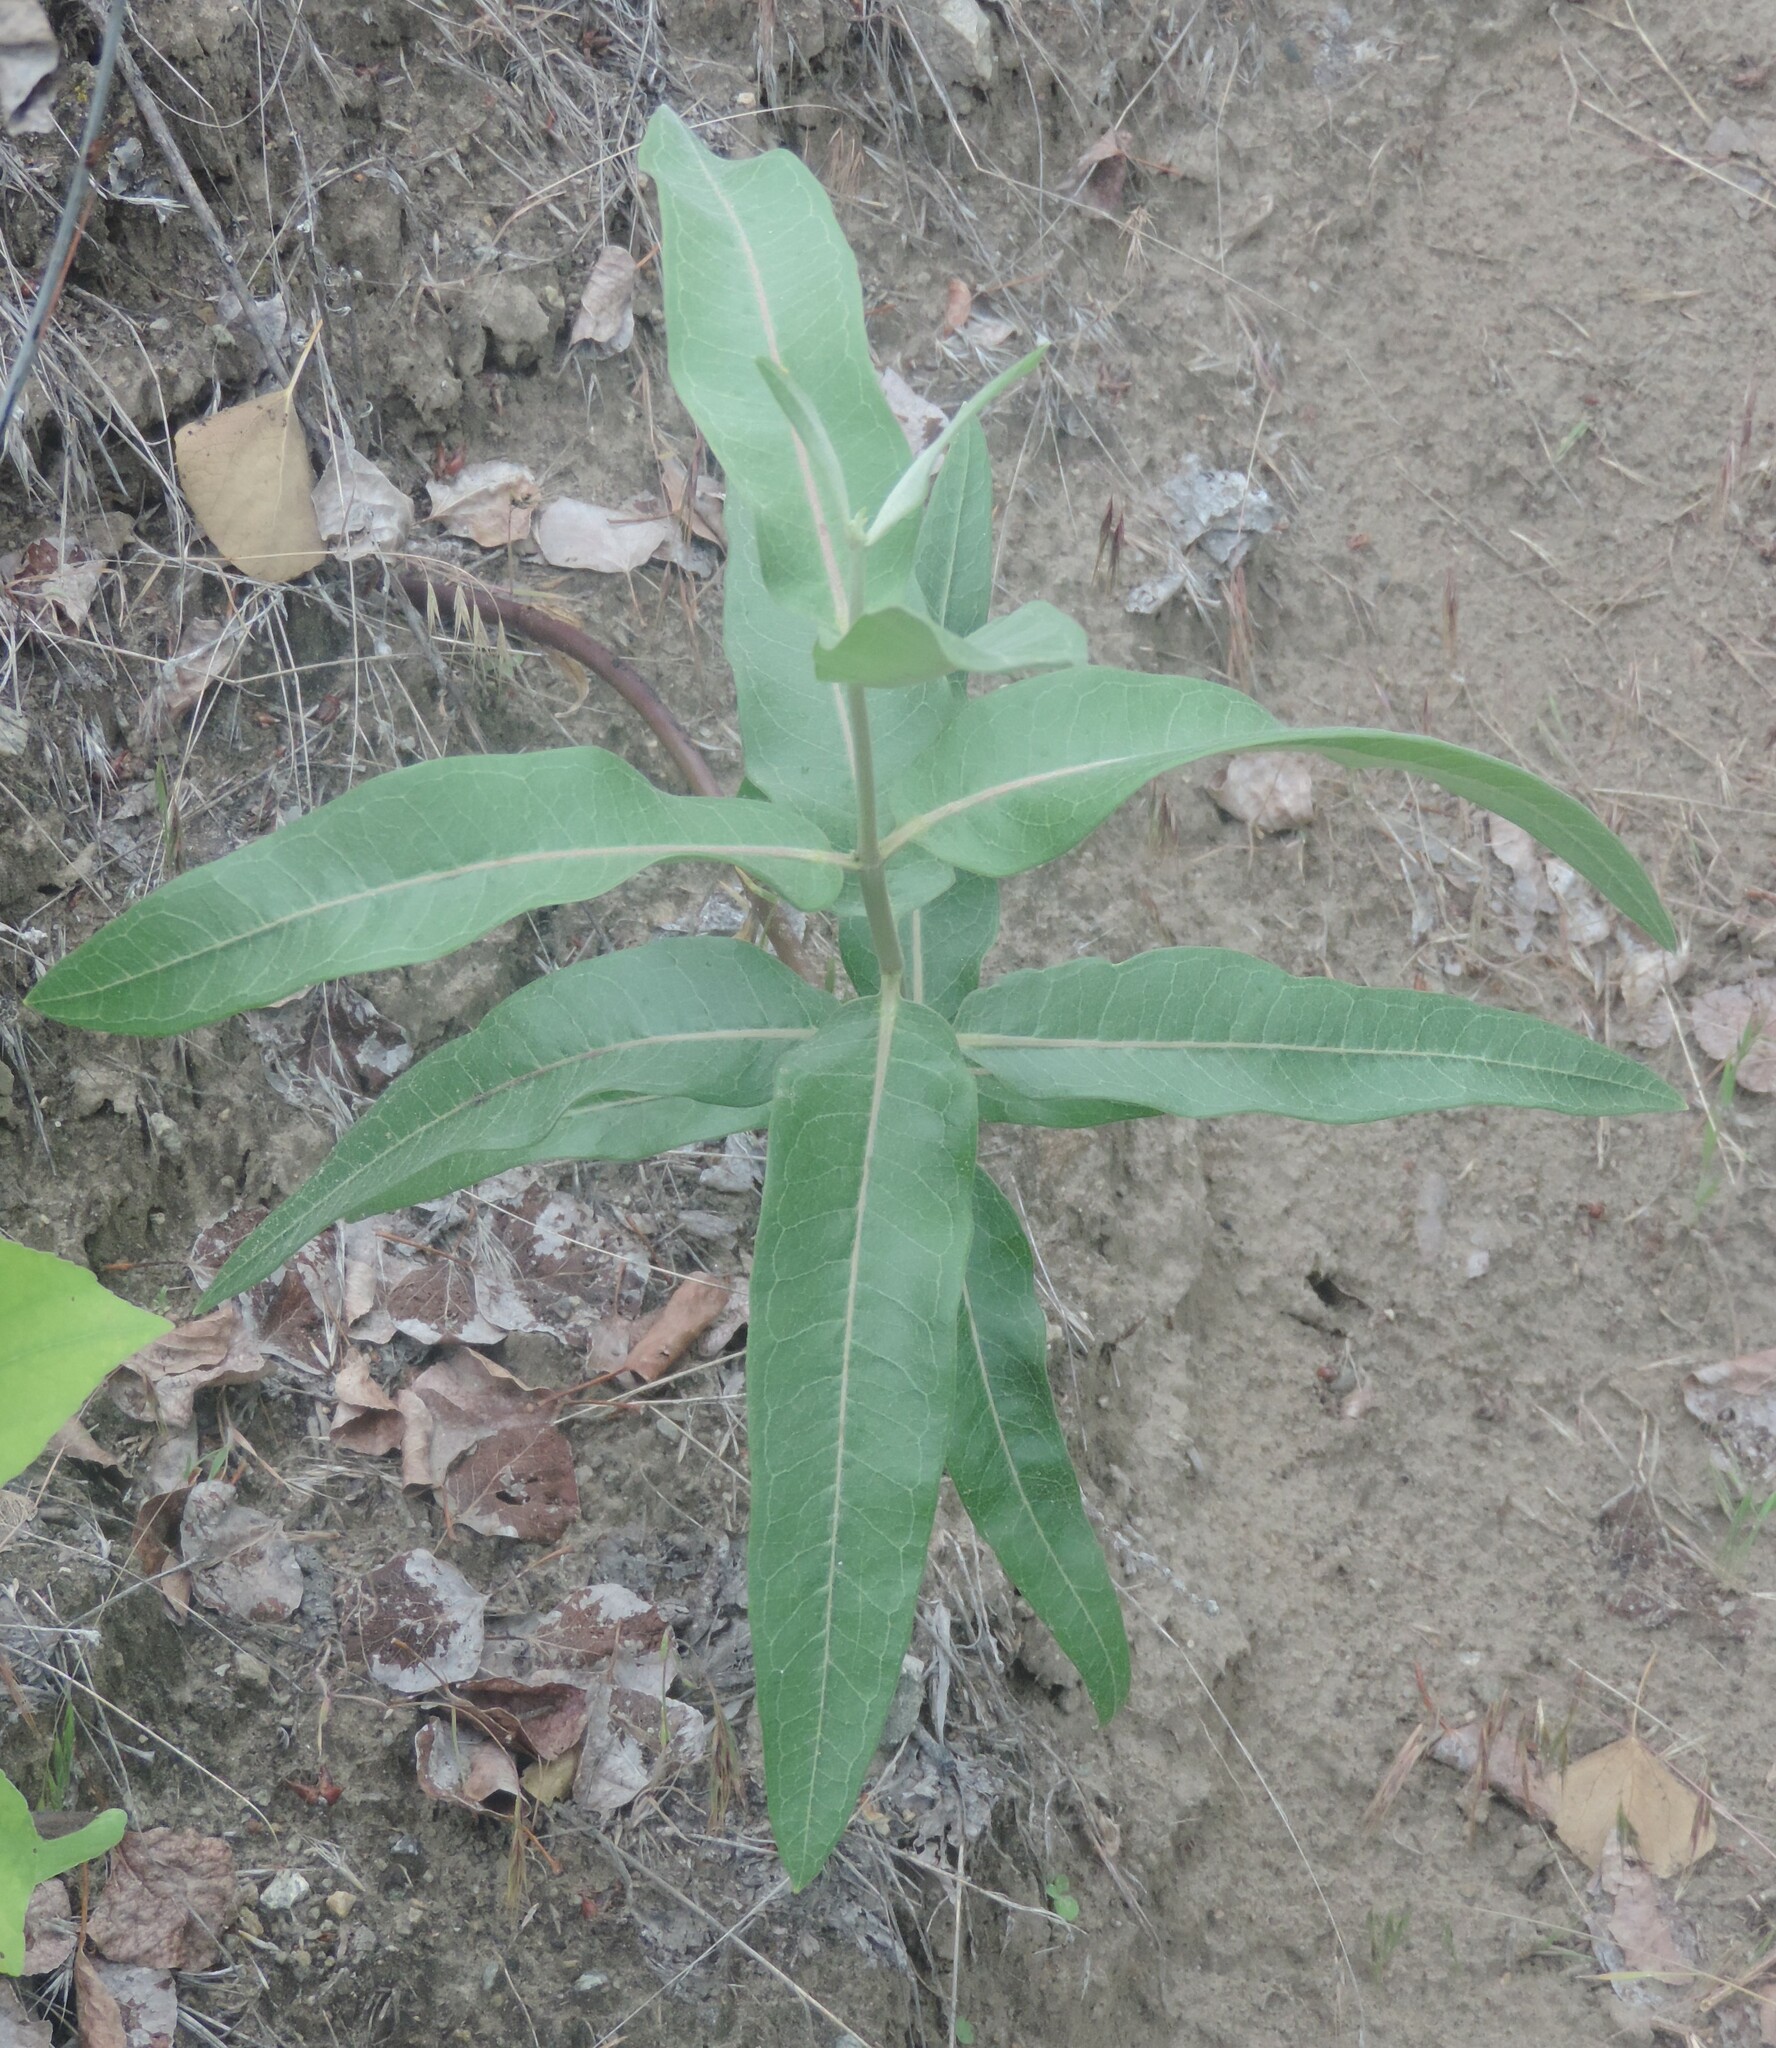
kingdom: Plantae
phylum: Tracheophyta
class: Magnoliopsida
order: Gentianales
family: Apocynaceae
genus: Asclepias
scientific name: Asclepias speciosa
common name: Showy milkweed
